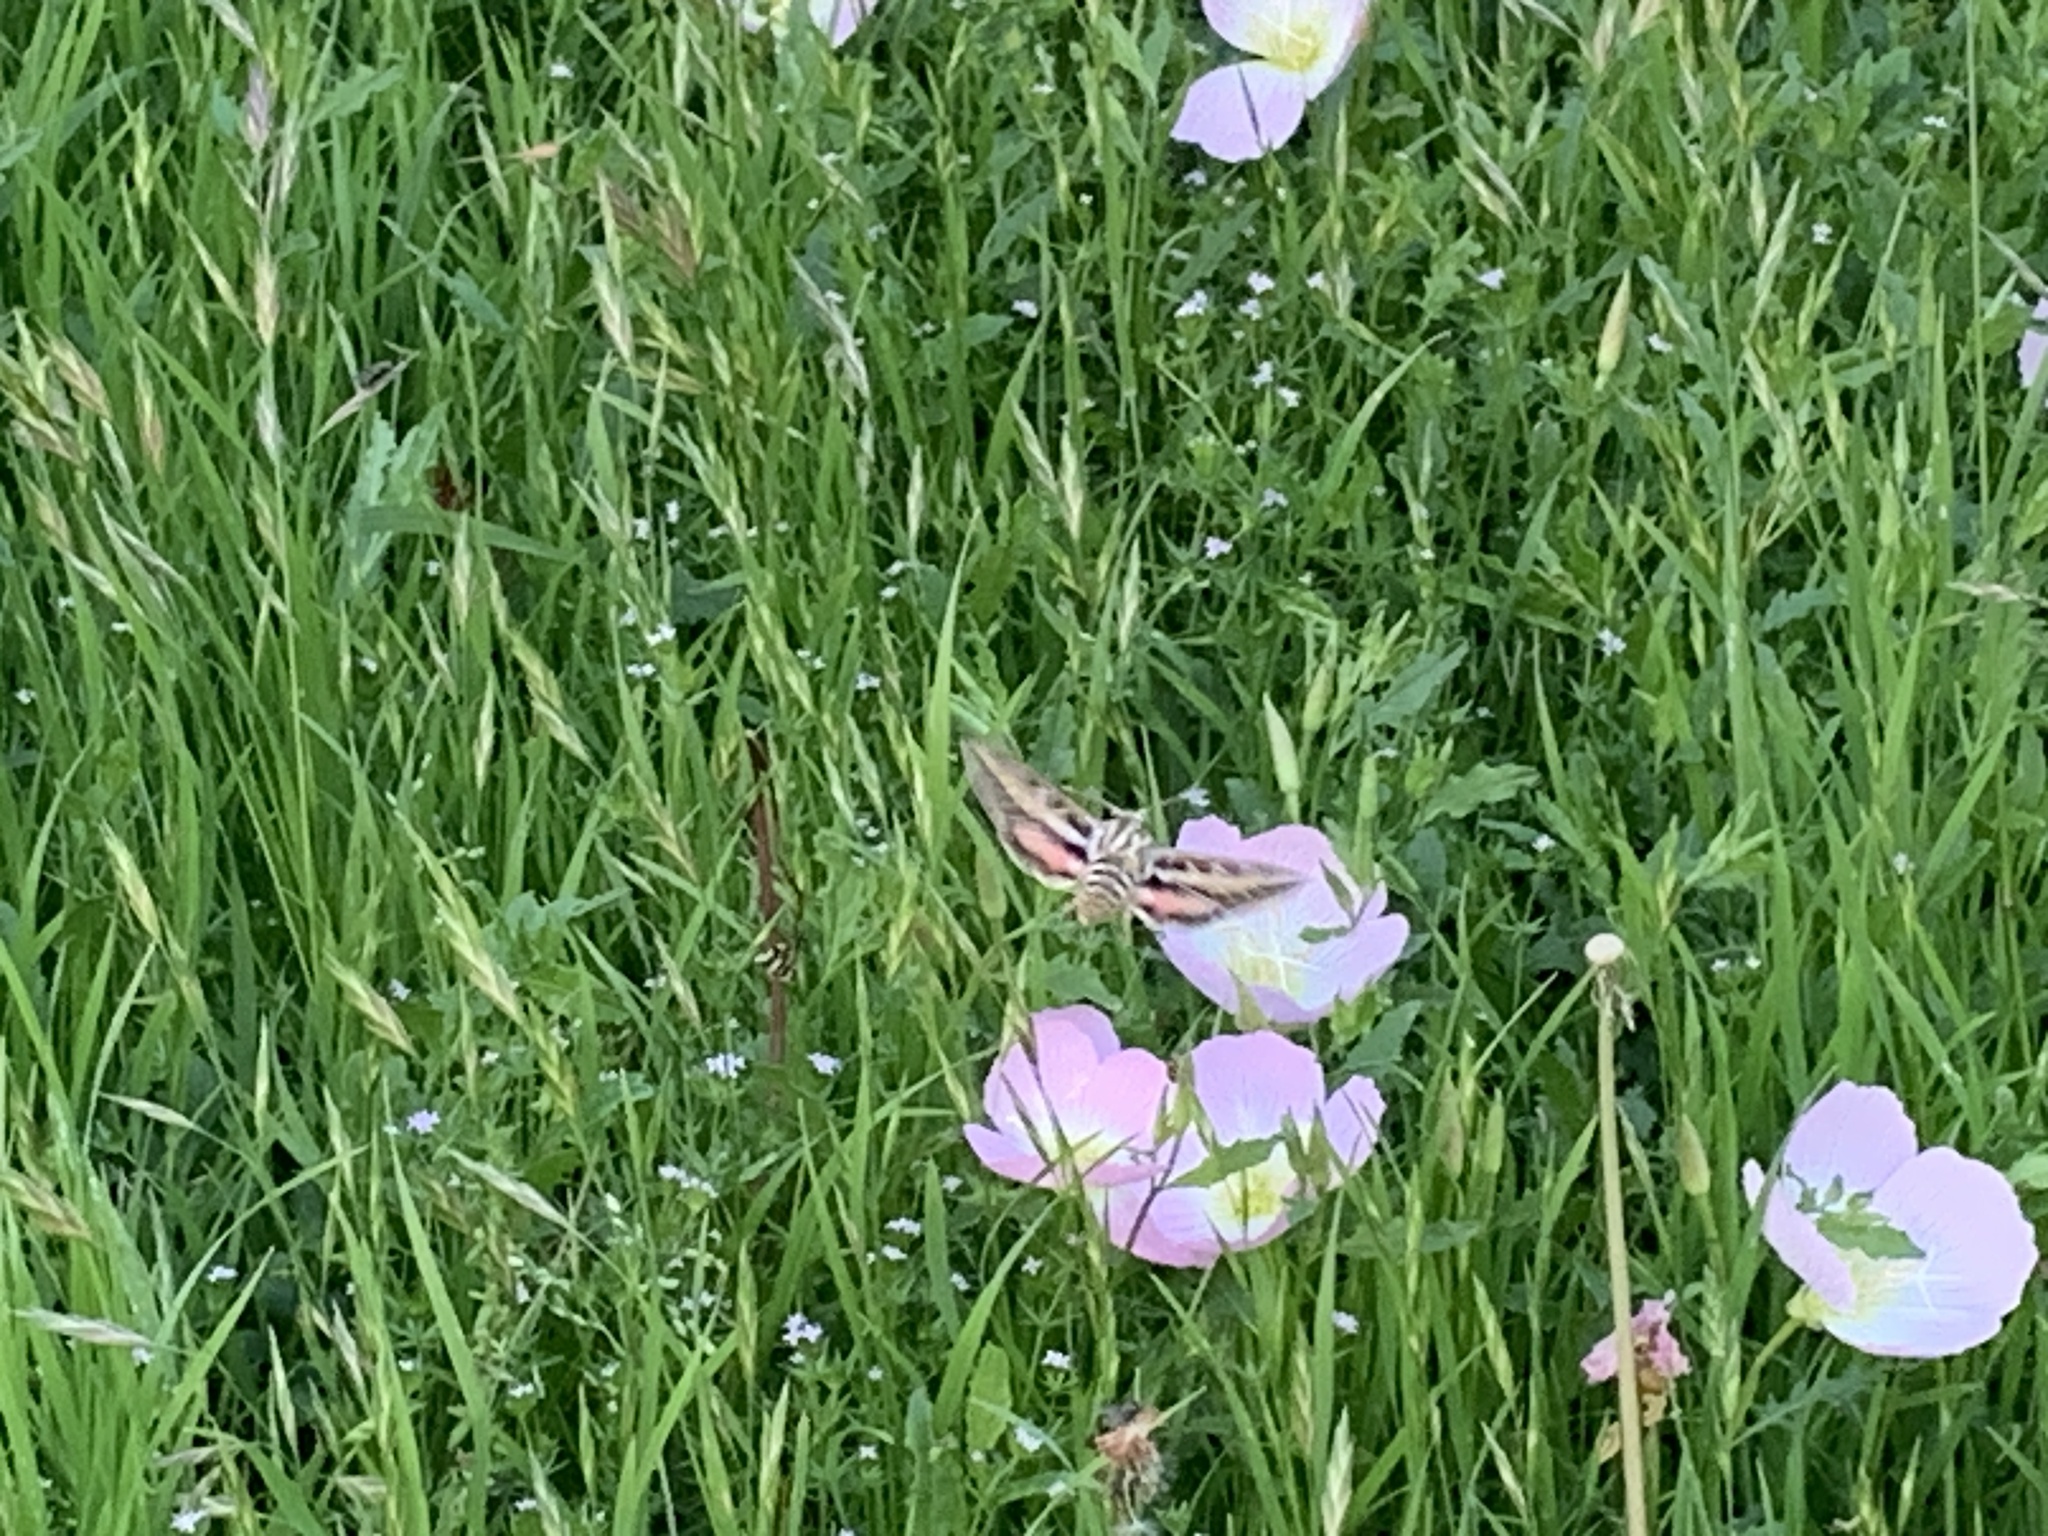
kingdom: Animalia
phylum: Arthropoda
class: Insecta
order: Lepidoptera
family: Sphingidae
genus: Hyles
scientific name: Hyles lineata
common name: White-lined sphinx
